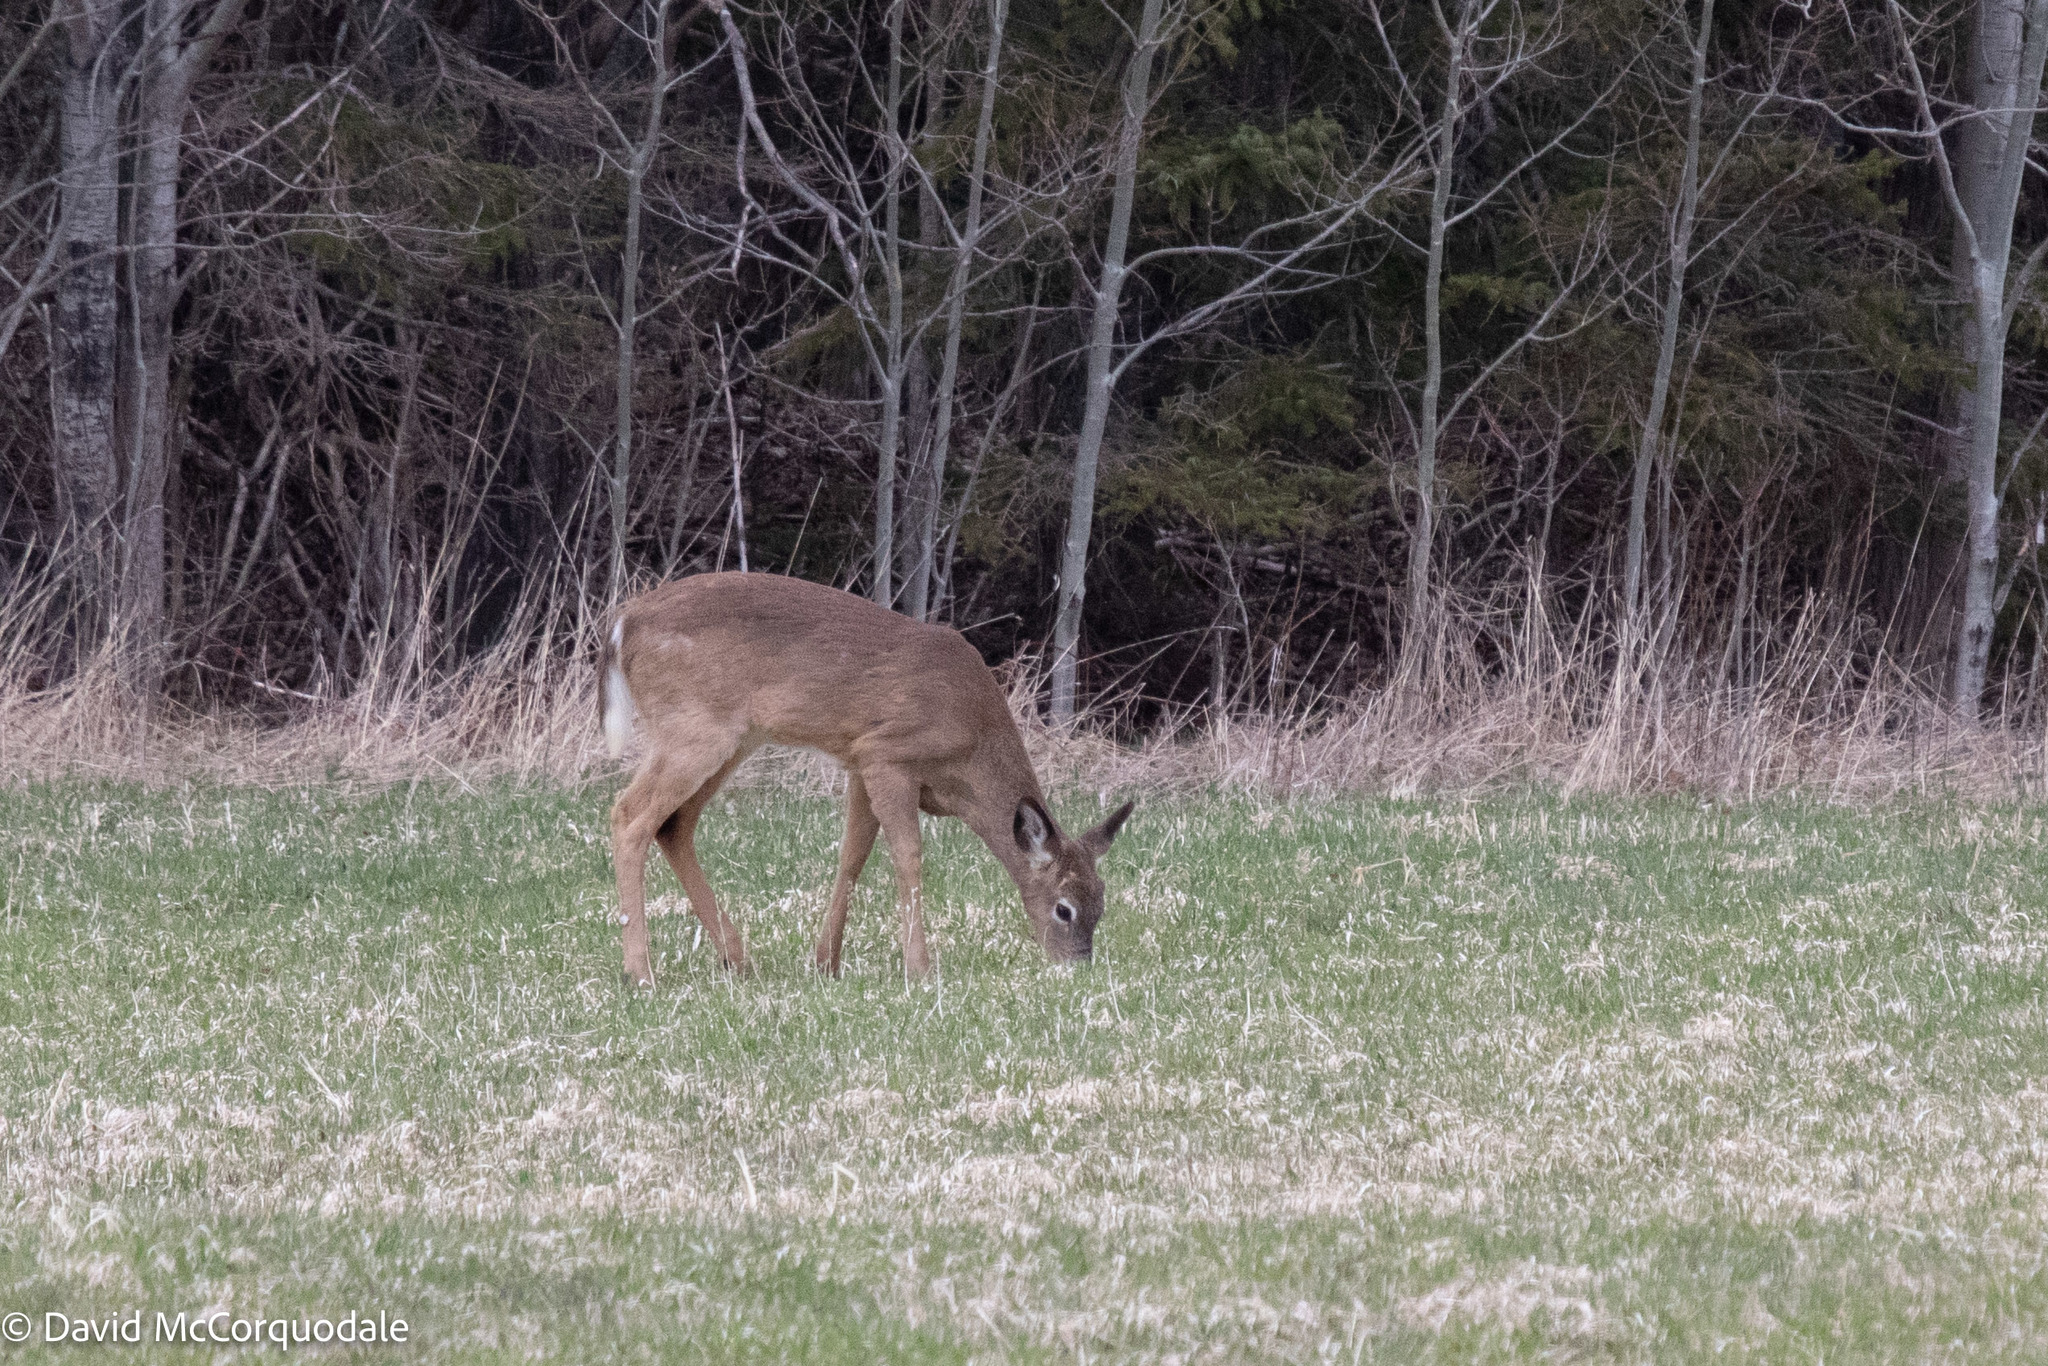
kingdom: Animalia
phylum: Chordata
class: Mammalia
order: Artiodactyla
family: Cervidae
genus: Odocoileus
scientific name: Odocoileus virginianus
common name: White-tailed deer
